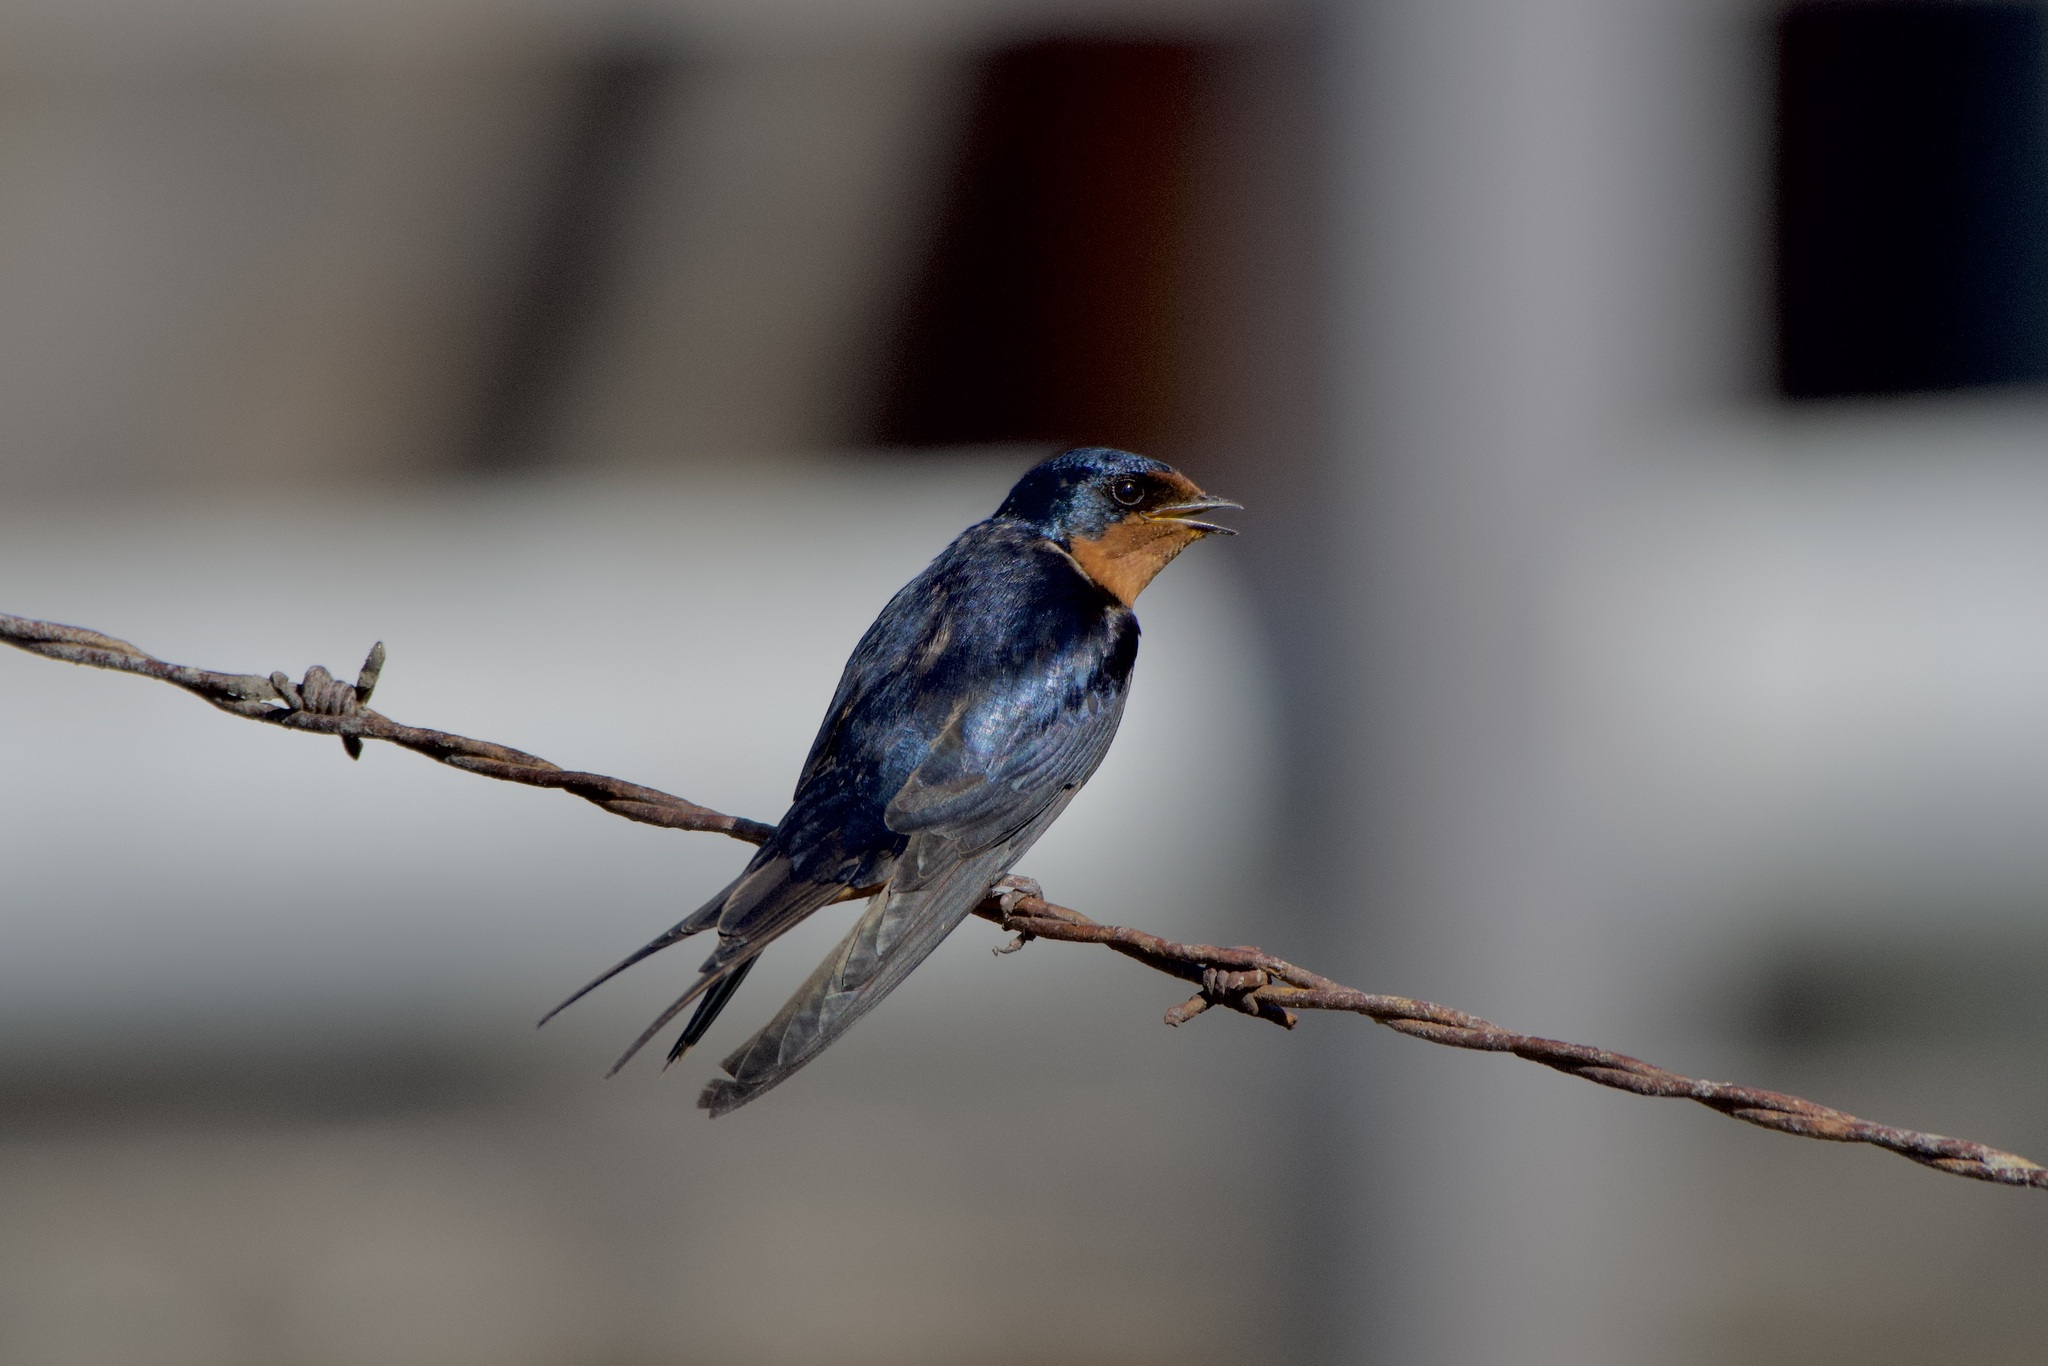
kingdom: Animalia
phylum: Chordata
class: Aves
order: Passeriformes
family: Hirundinidae
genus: Hirundo
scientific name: Hirundo rustica
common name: Barn swallow
